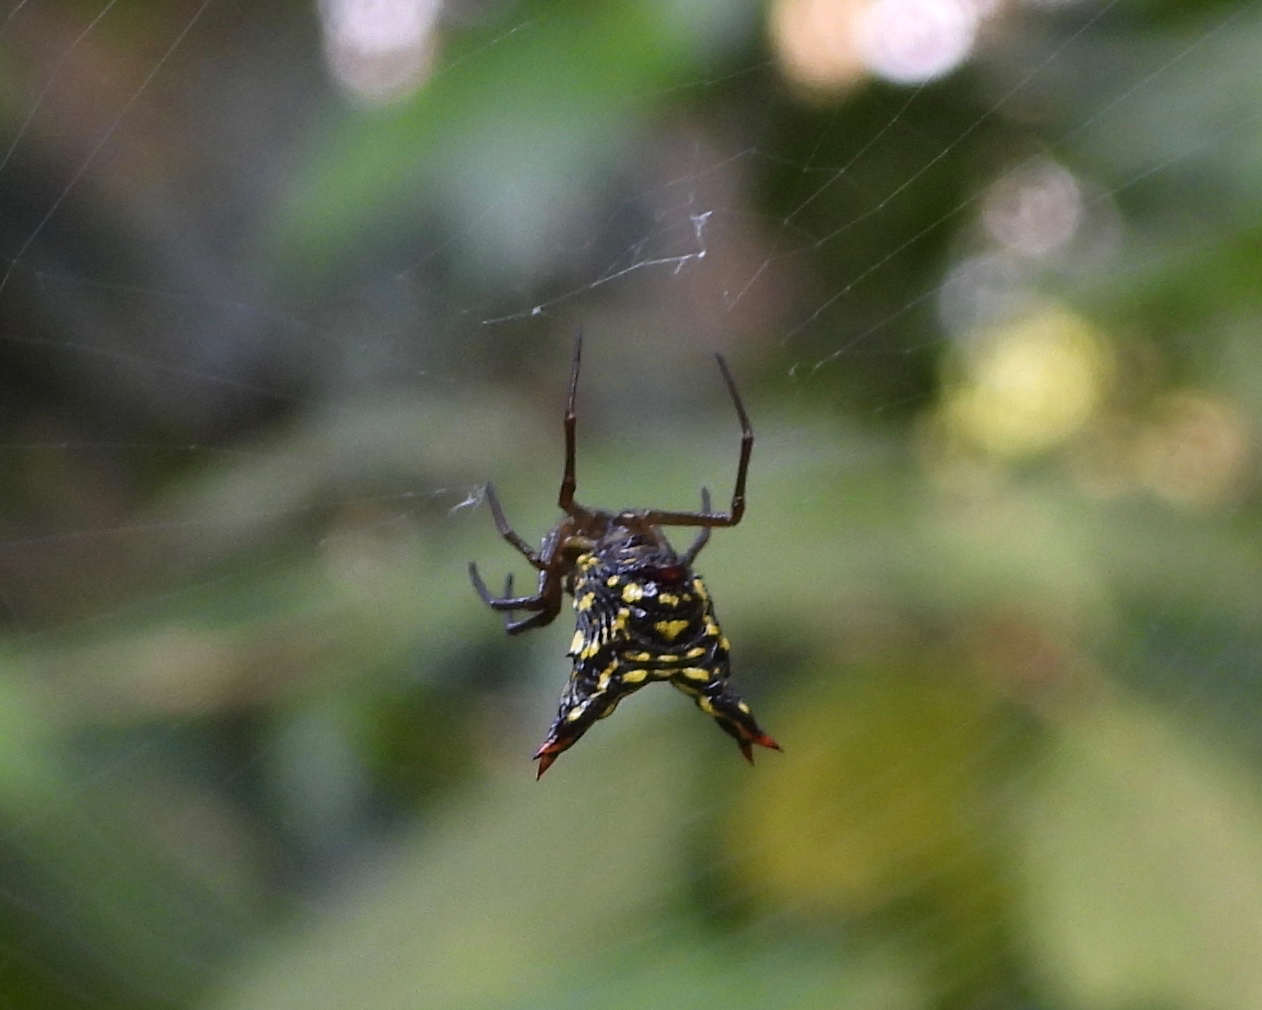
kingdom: Animalia
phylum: Arthropoda
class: Arachnida
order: Araneae
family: Araneidae
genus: Micrathena
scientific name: Micrathena lucasi
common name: Orb weavers
